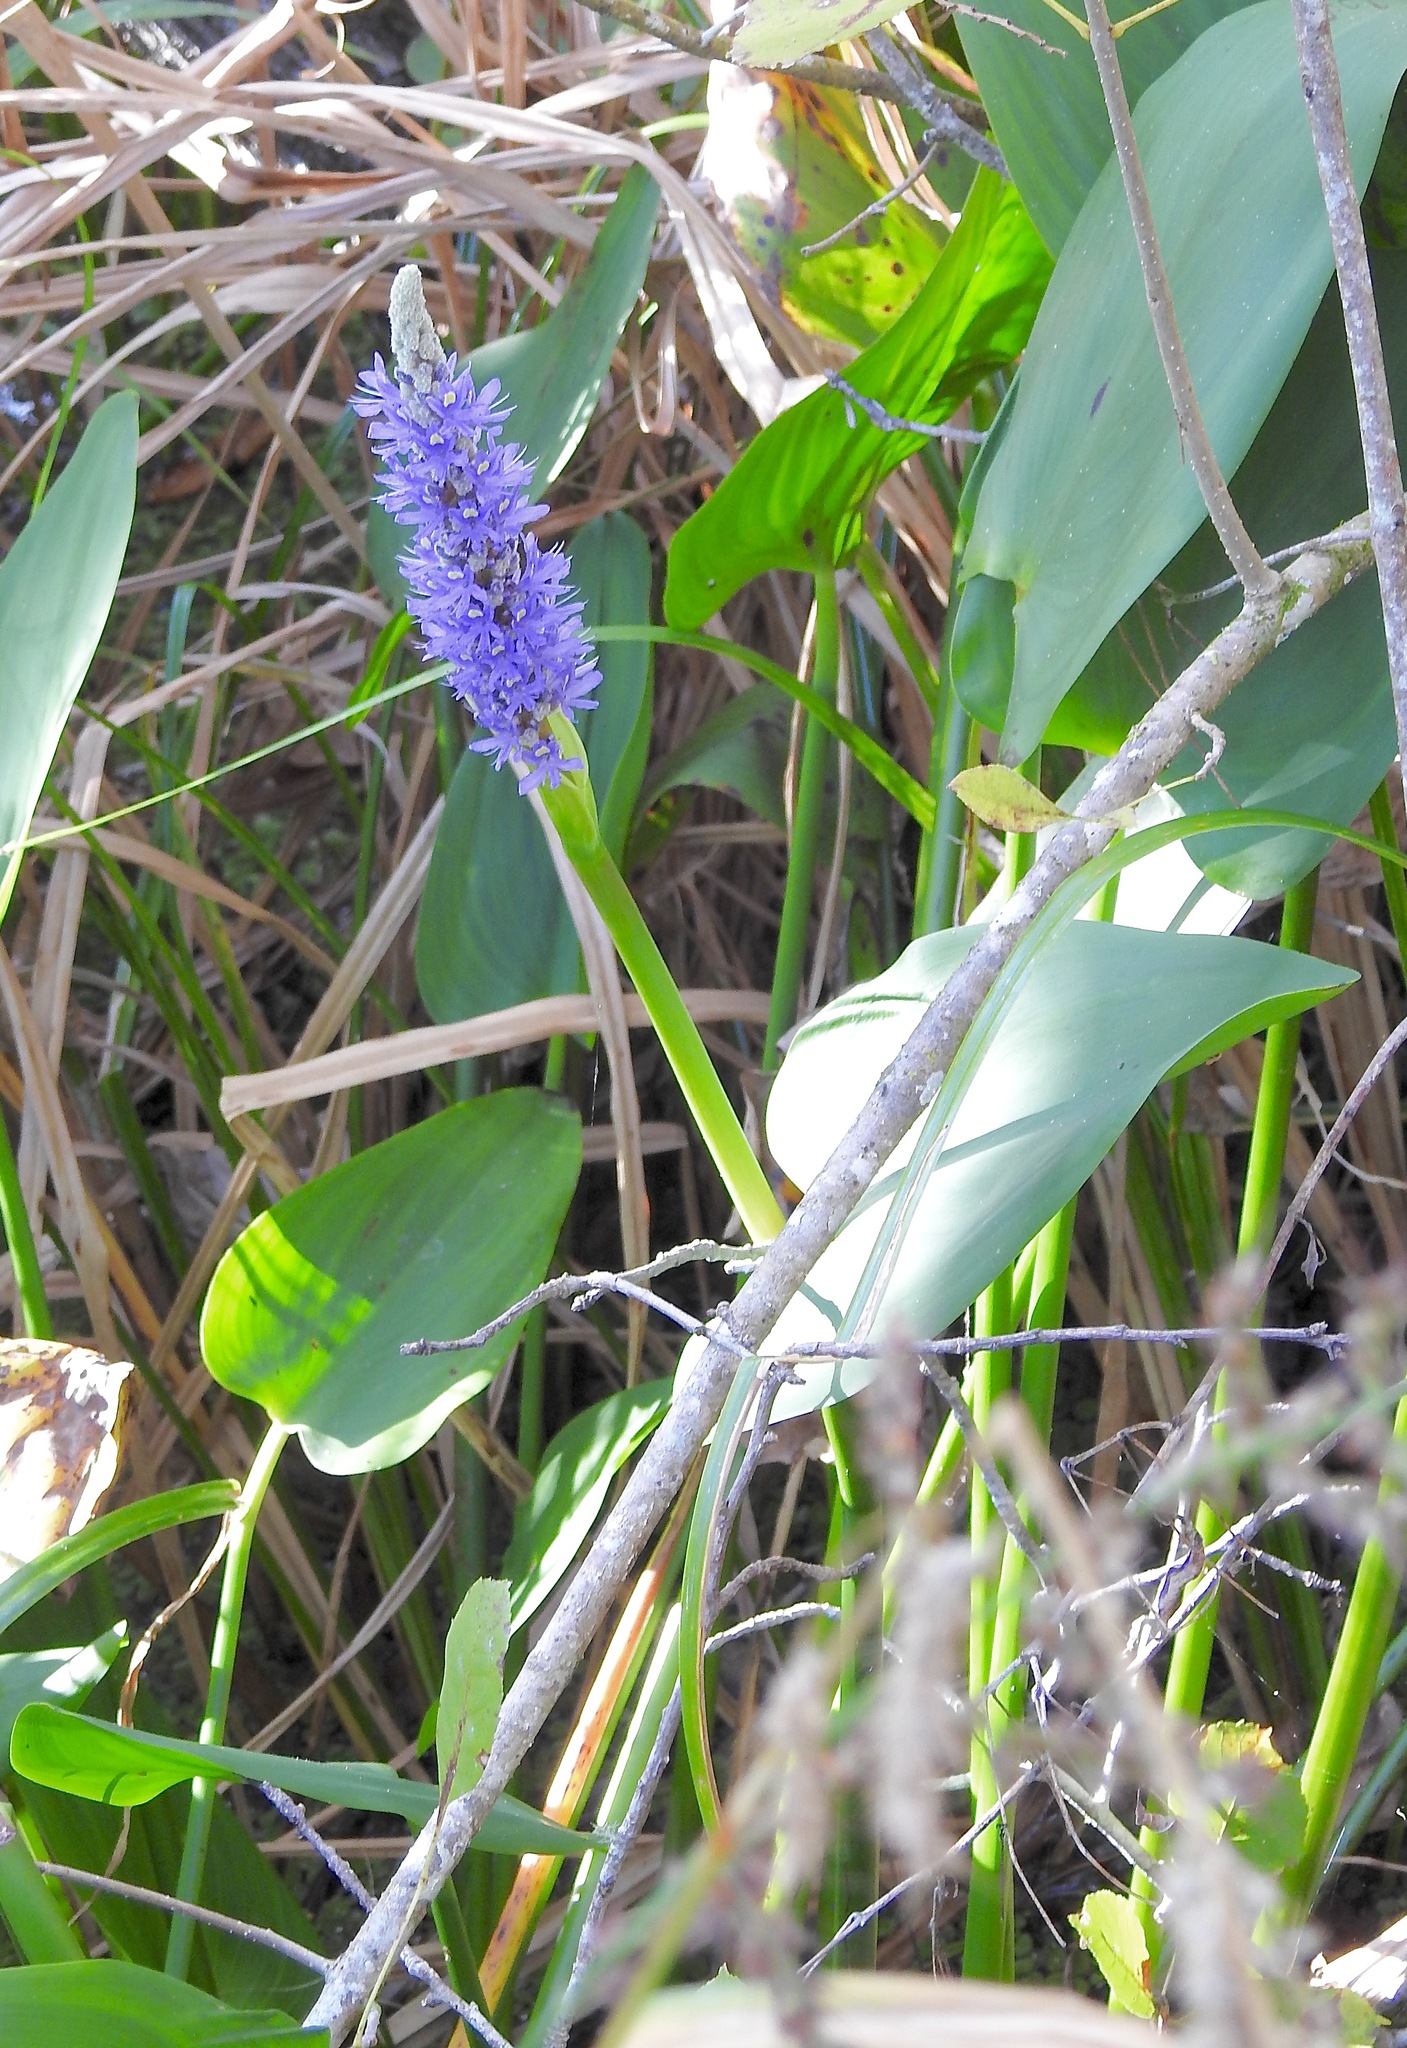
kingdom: Plantae
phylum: Tracheophyta
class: Liliopsida
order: Commelinales
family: Pontederiaceae
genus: Pontederia
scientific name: Pontederia cordata
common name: Pickerelweed
